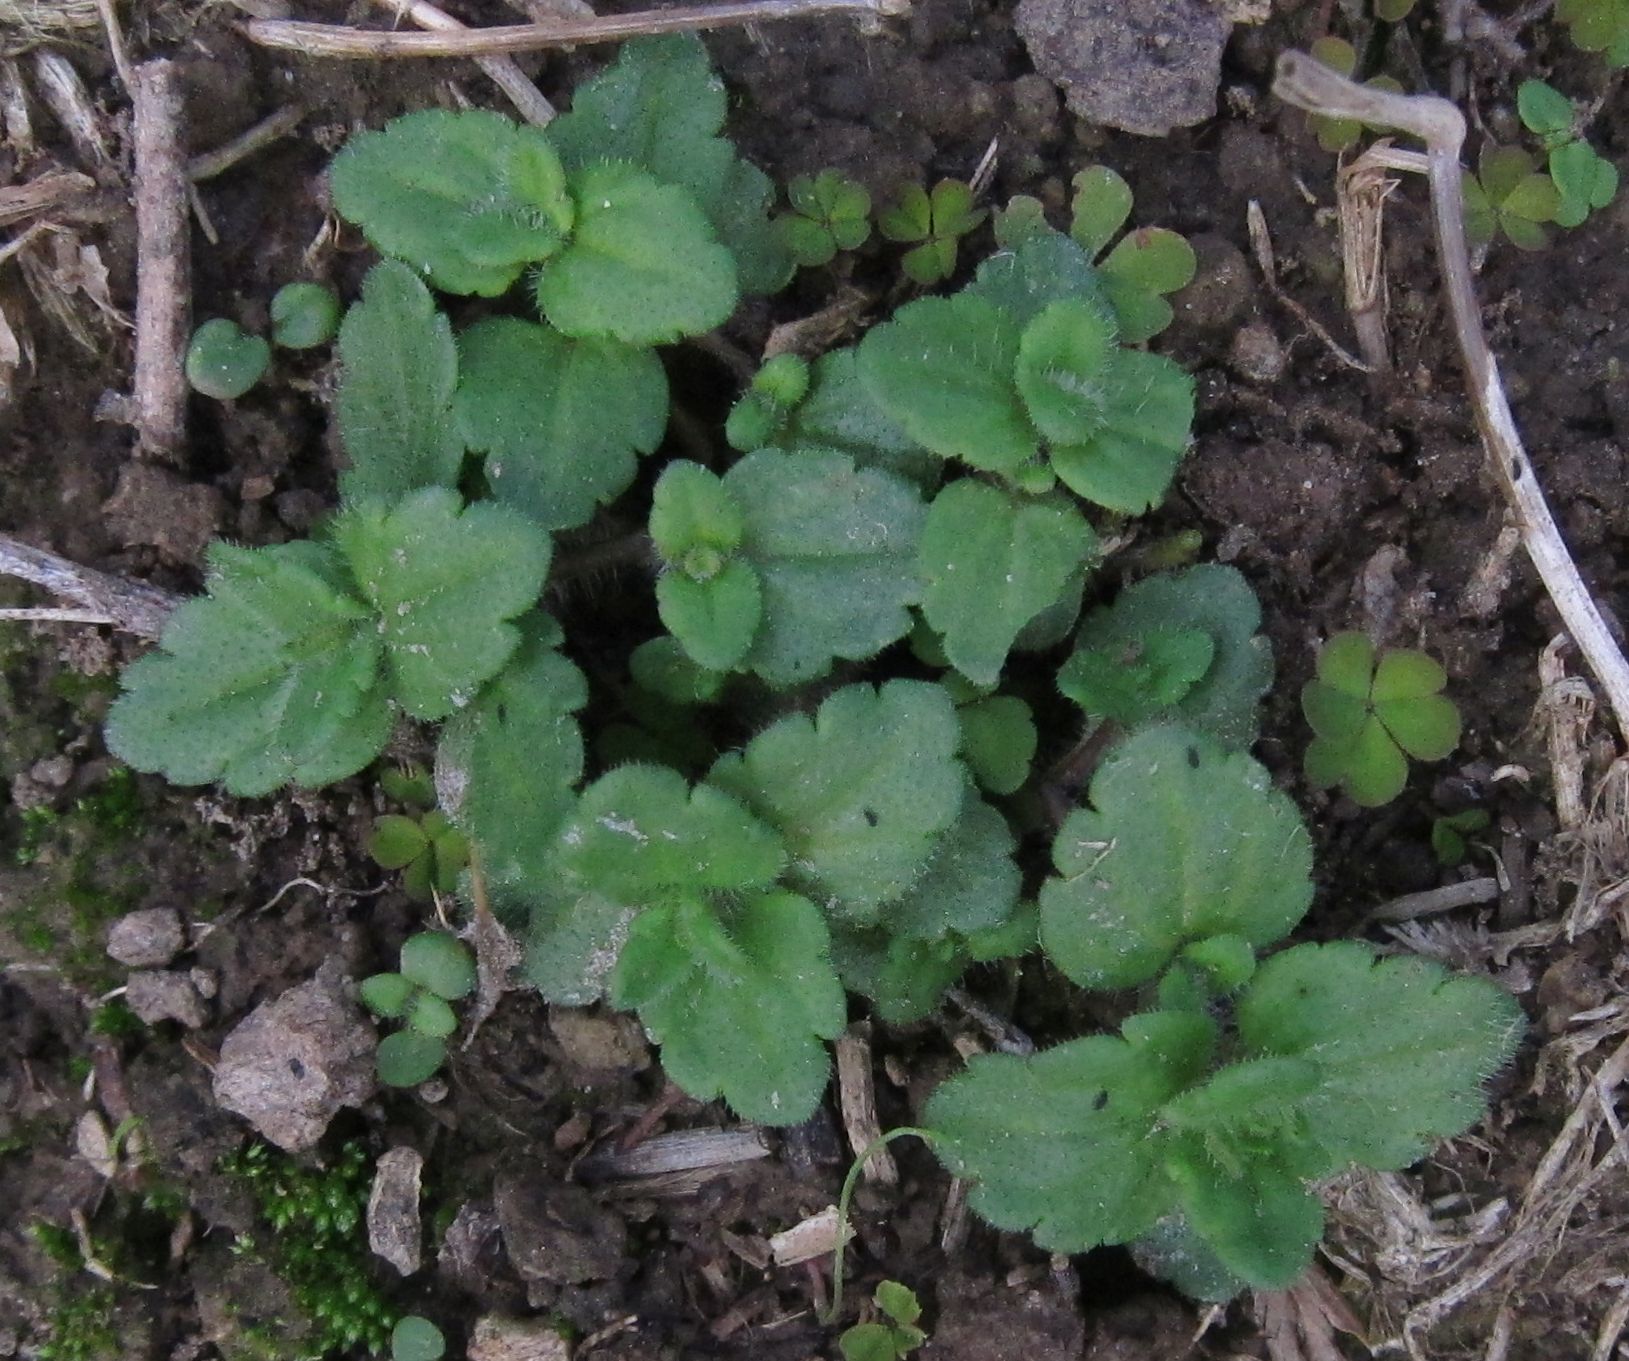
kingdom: Plantae
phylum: Tracheophyta
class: Magnoliopsida
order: Lamiales
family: Plantaginaceae
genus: Veronica
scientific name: Veronica arvensis
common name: Corn speedwell
